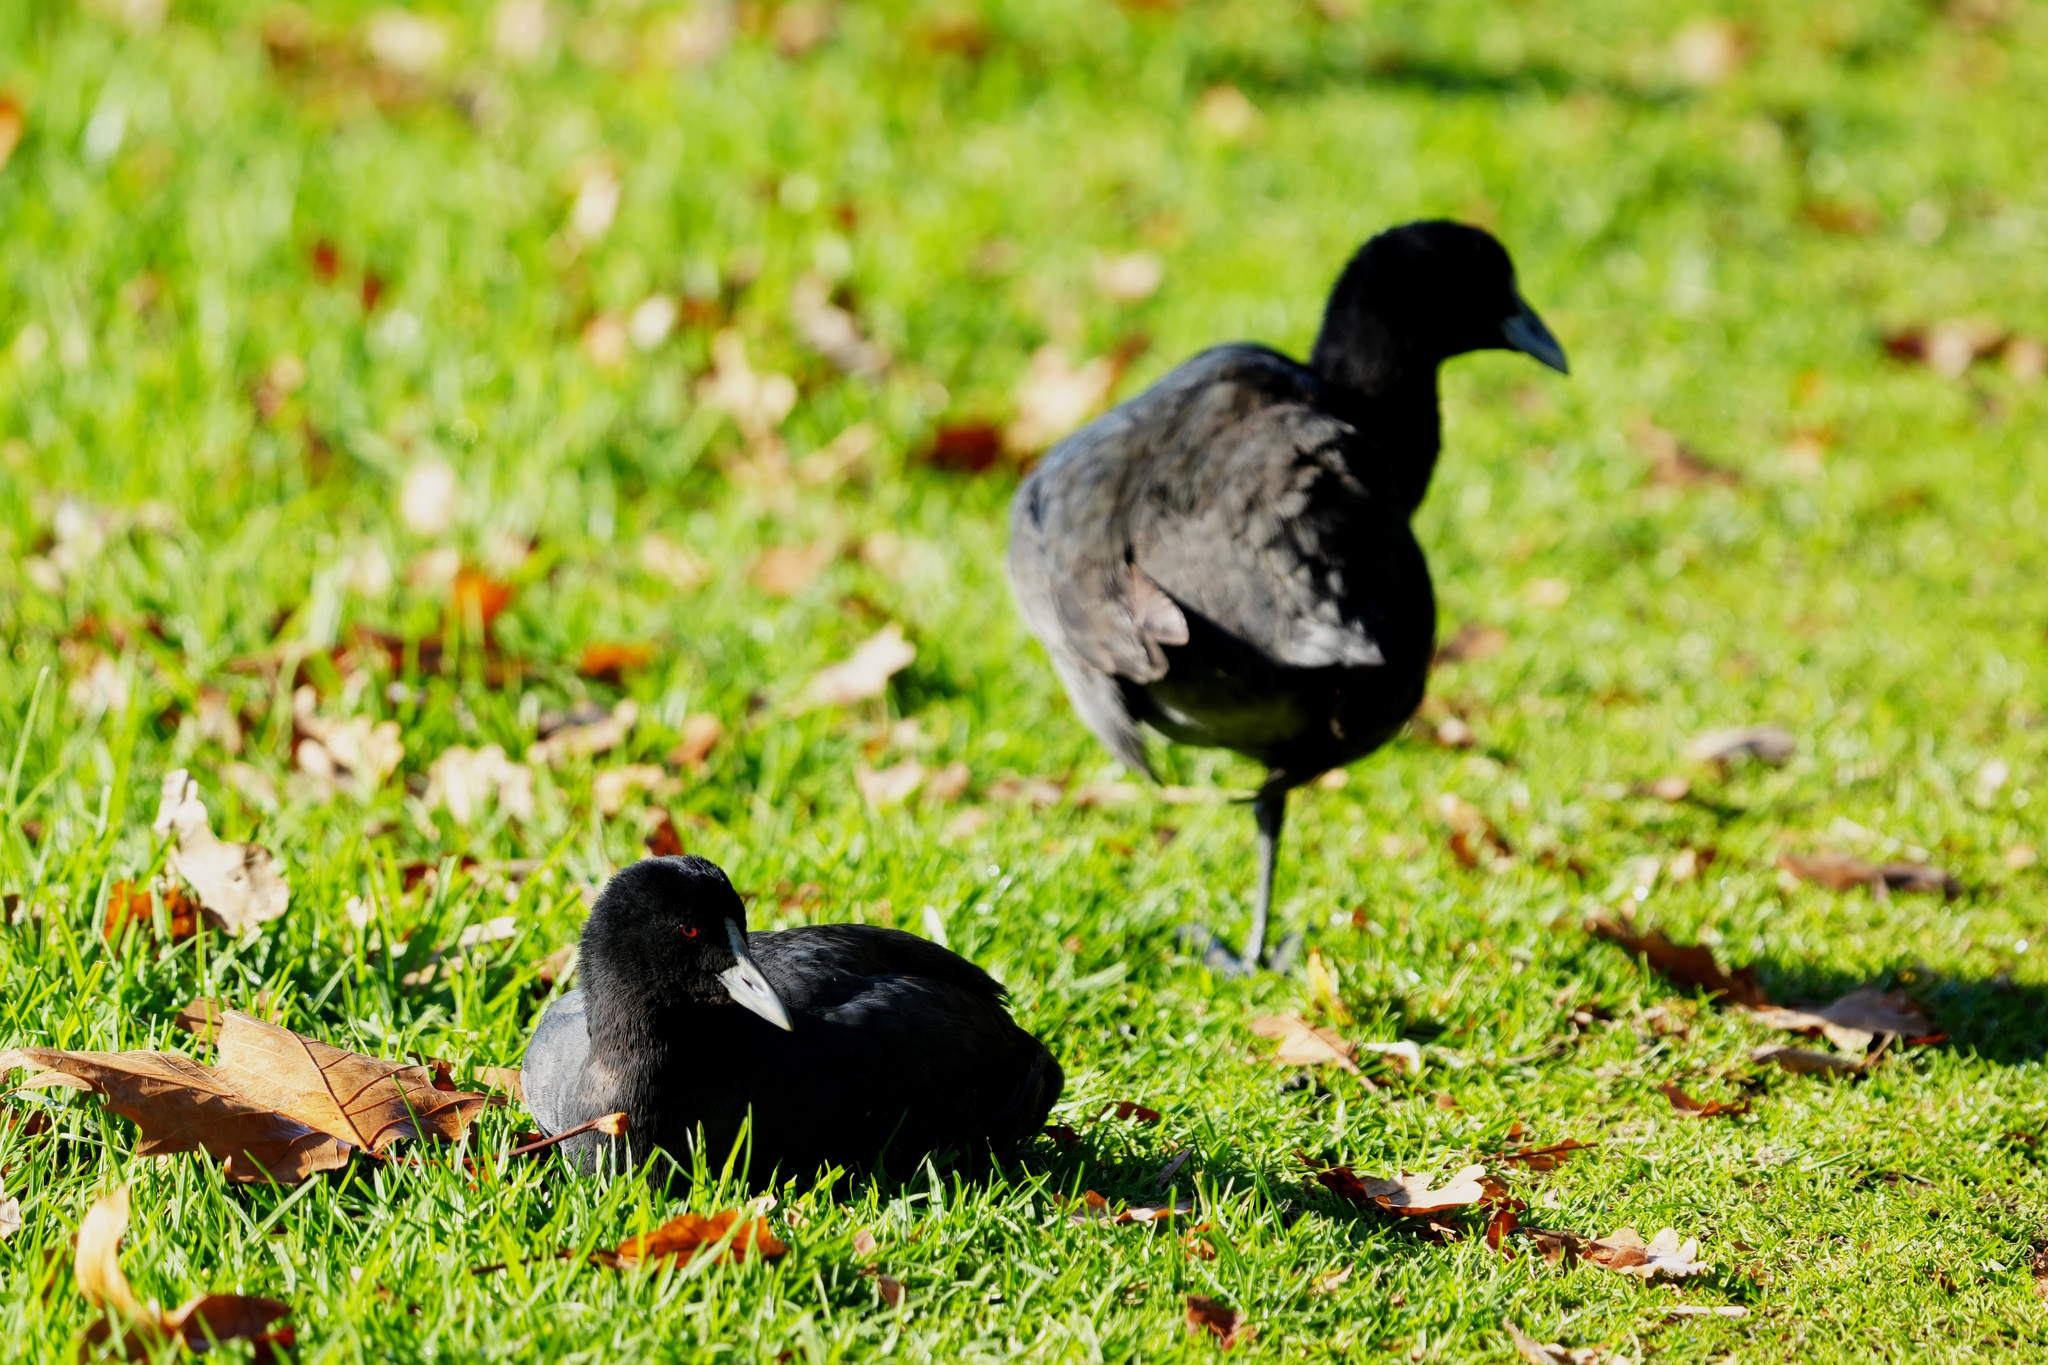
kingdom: Animalia
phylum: Chordata
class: Aves
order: Gruiformes
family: Rallidae
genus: Fulica
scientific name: Fulica atra
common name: Eurasian coot
